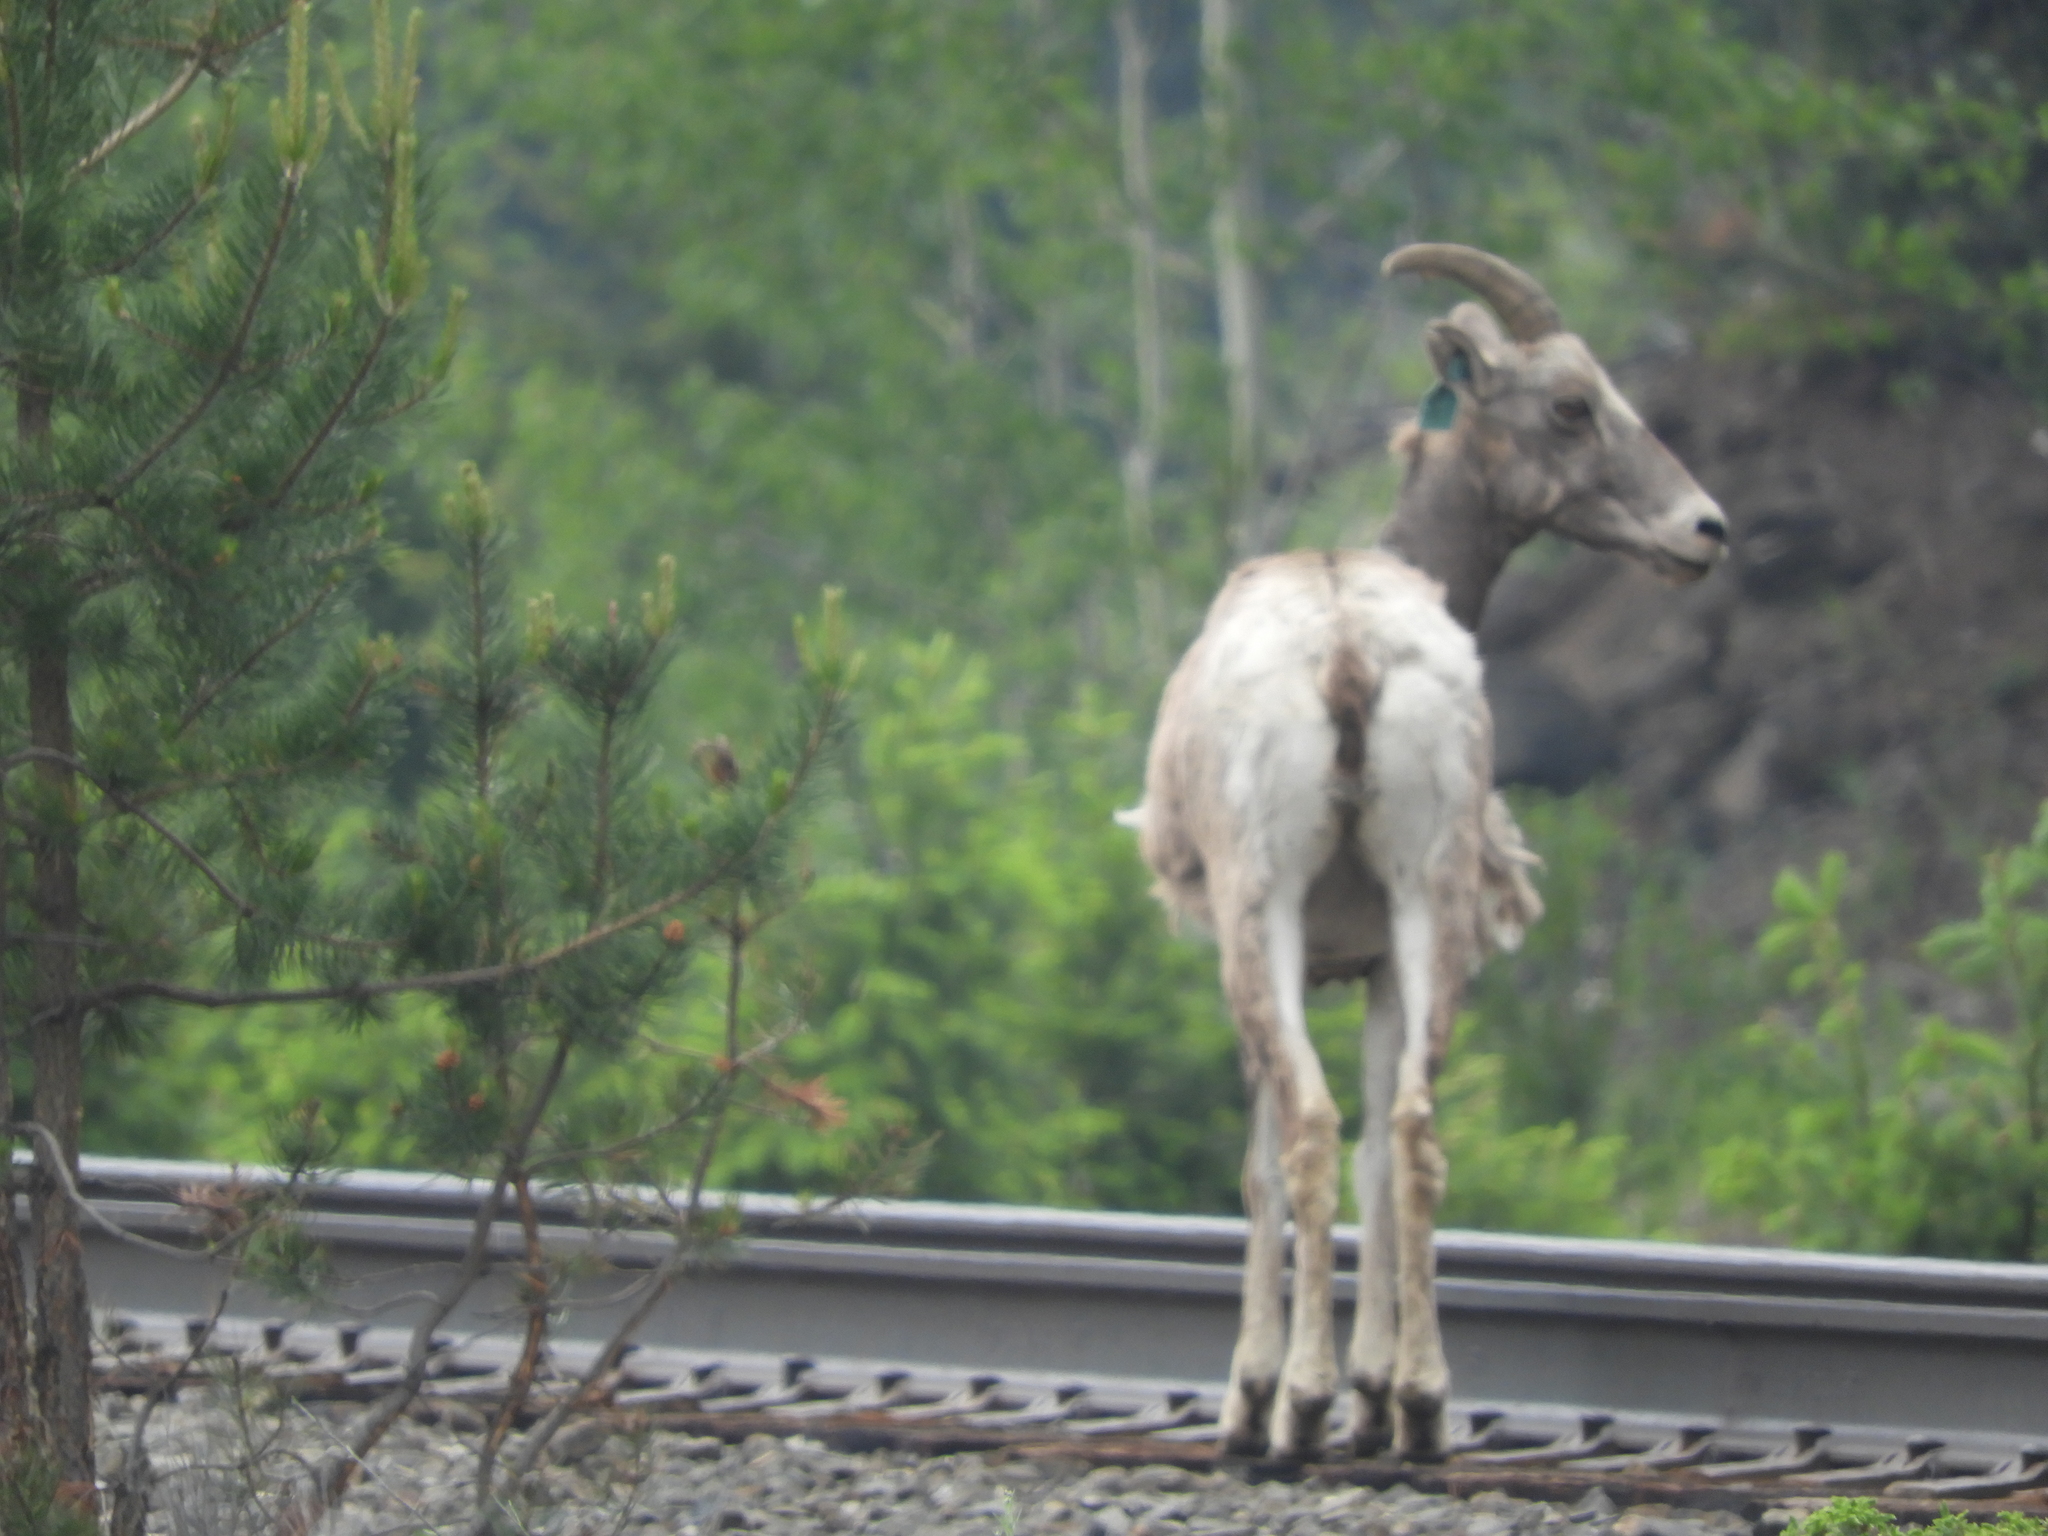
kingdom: Animalia
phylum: Chordata
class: Mammalia
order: Artiodactyla
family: Bovidae
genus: Ovis
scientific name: Ovis canadensis
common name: Bighorn sheep
